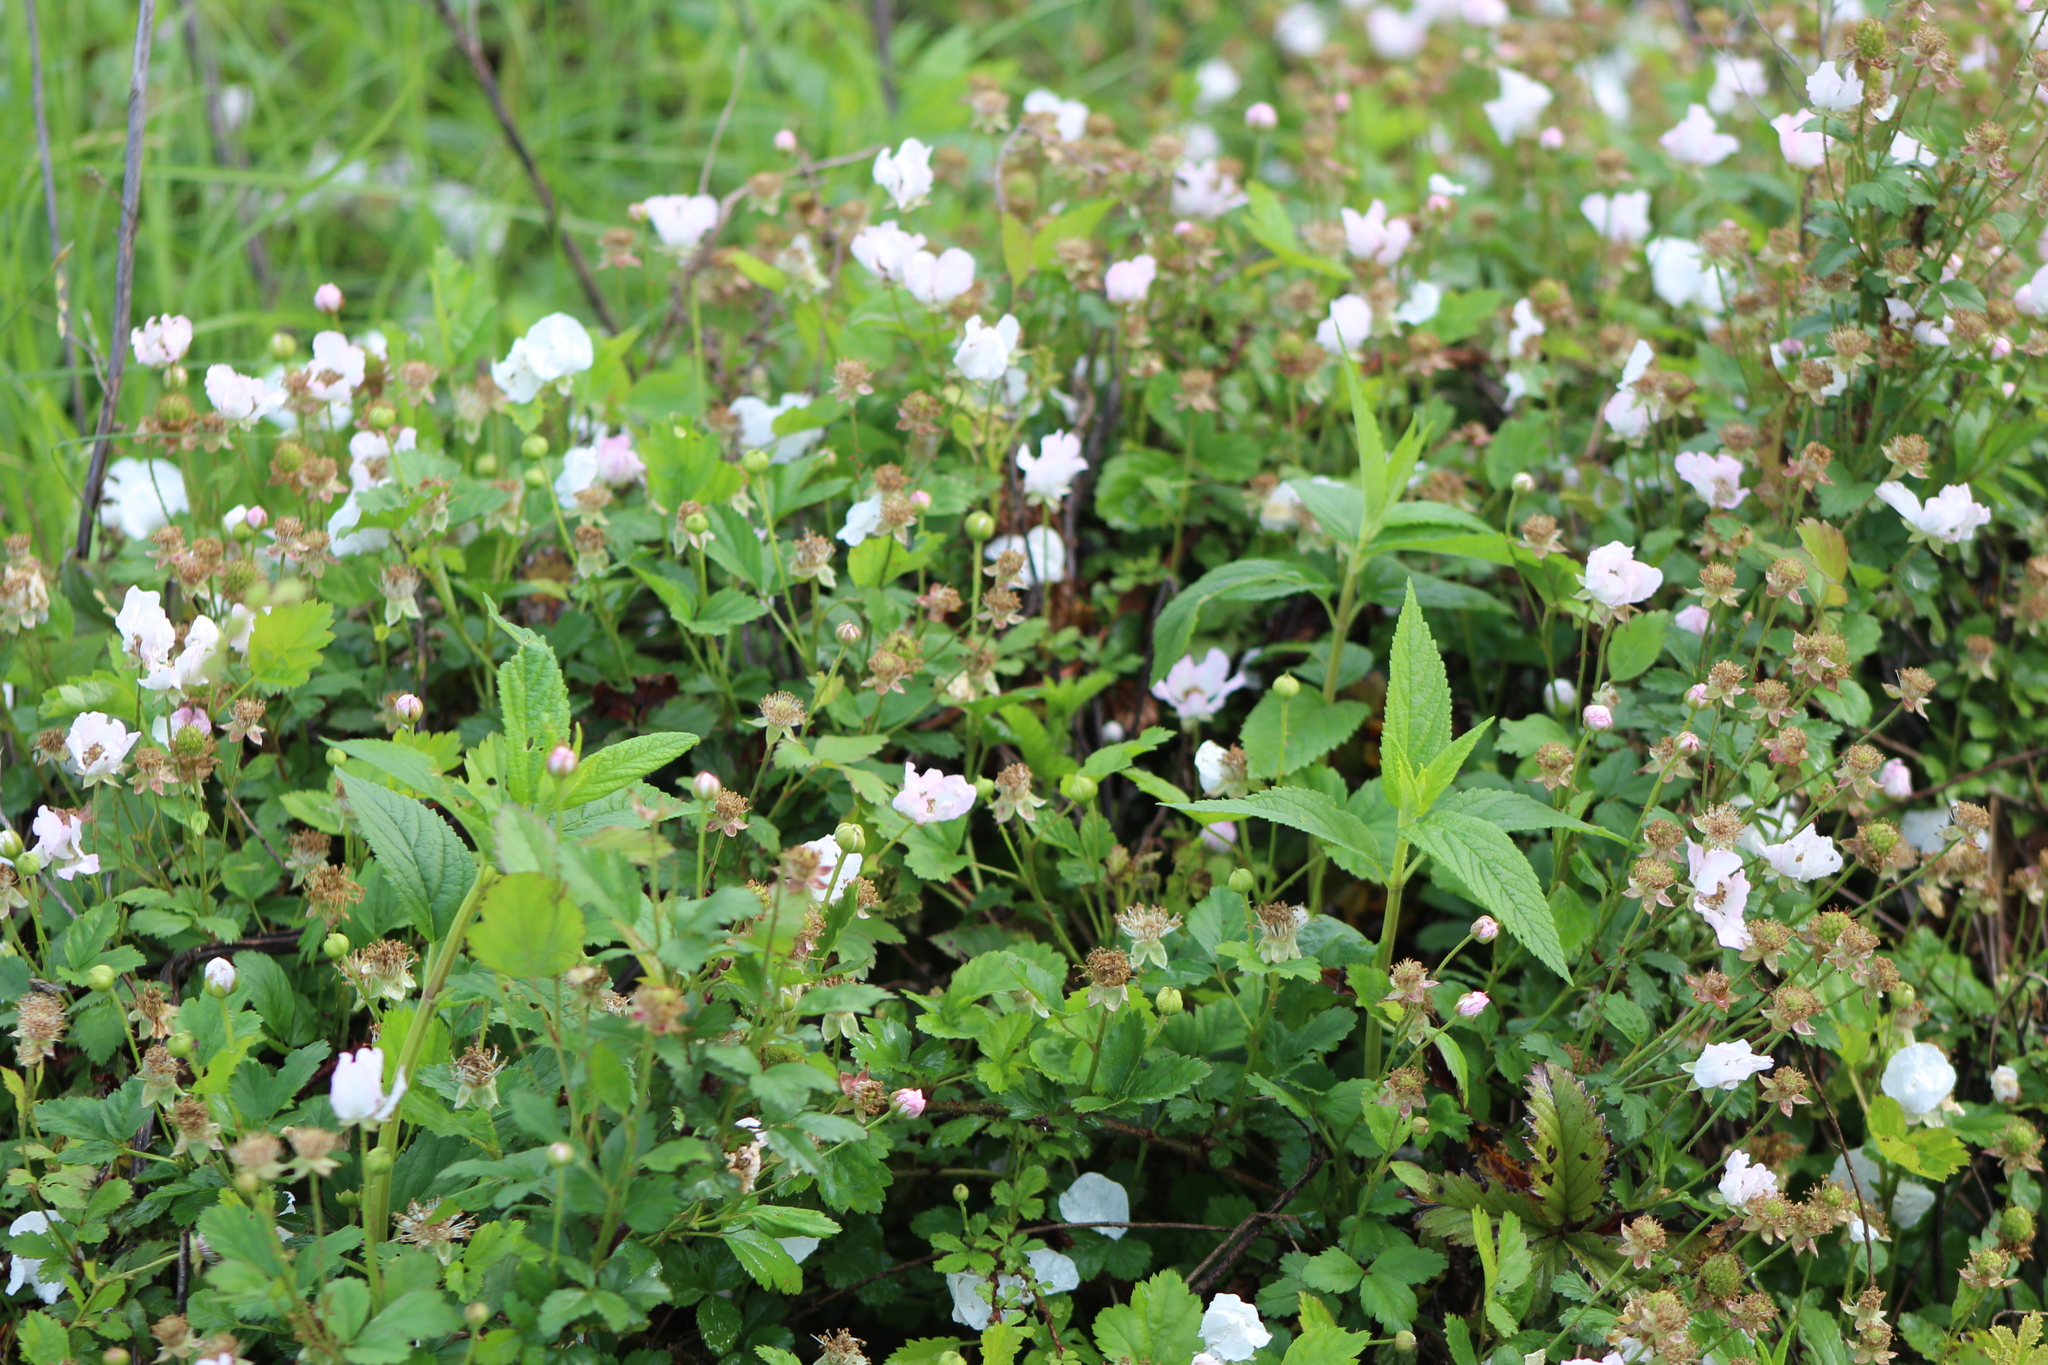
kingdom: Plantae
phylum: Tracheophyta
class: Magnoliopsida
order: Rosales
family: Rosaceae
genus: Rubus
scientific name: Rubus trivialis
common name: Southern dewberry
